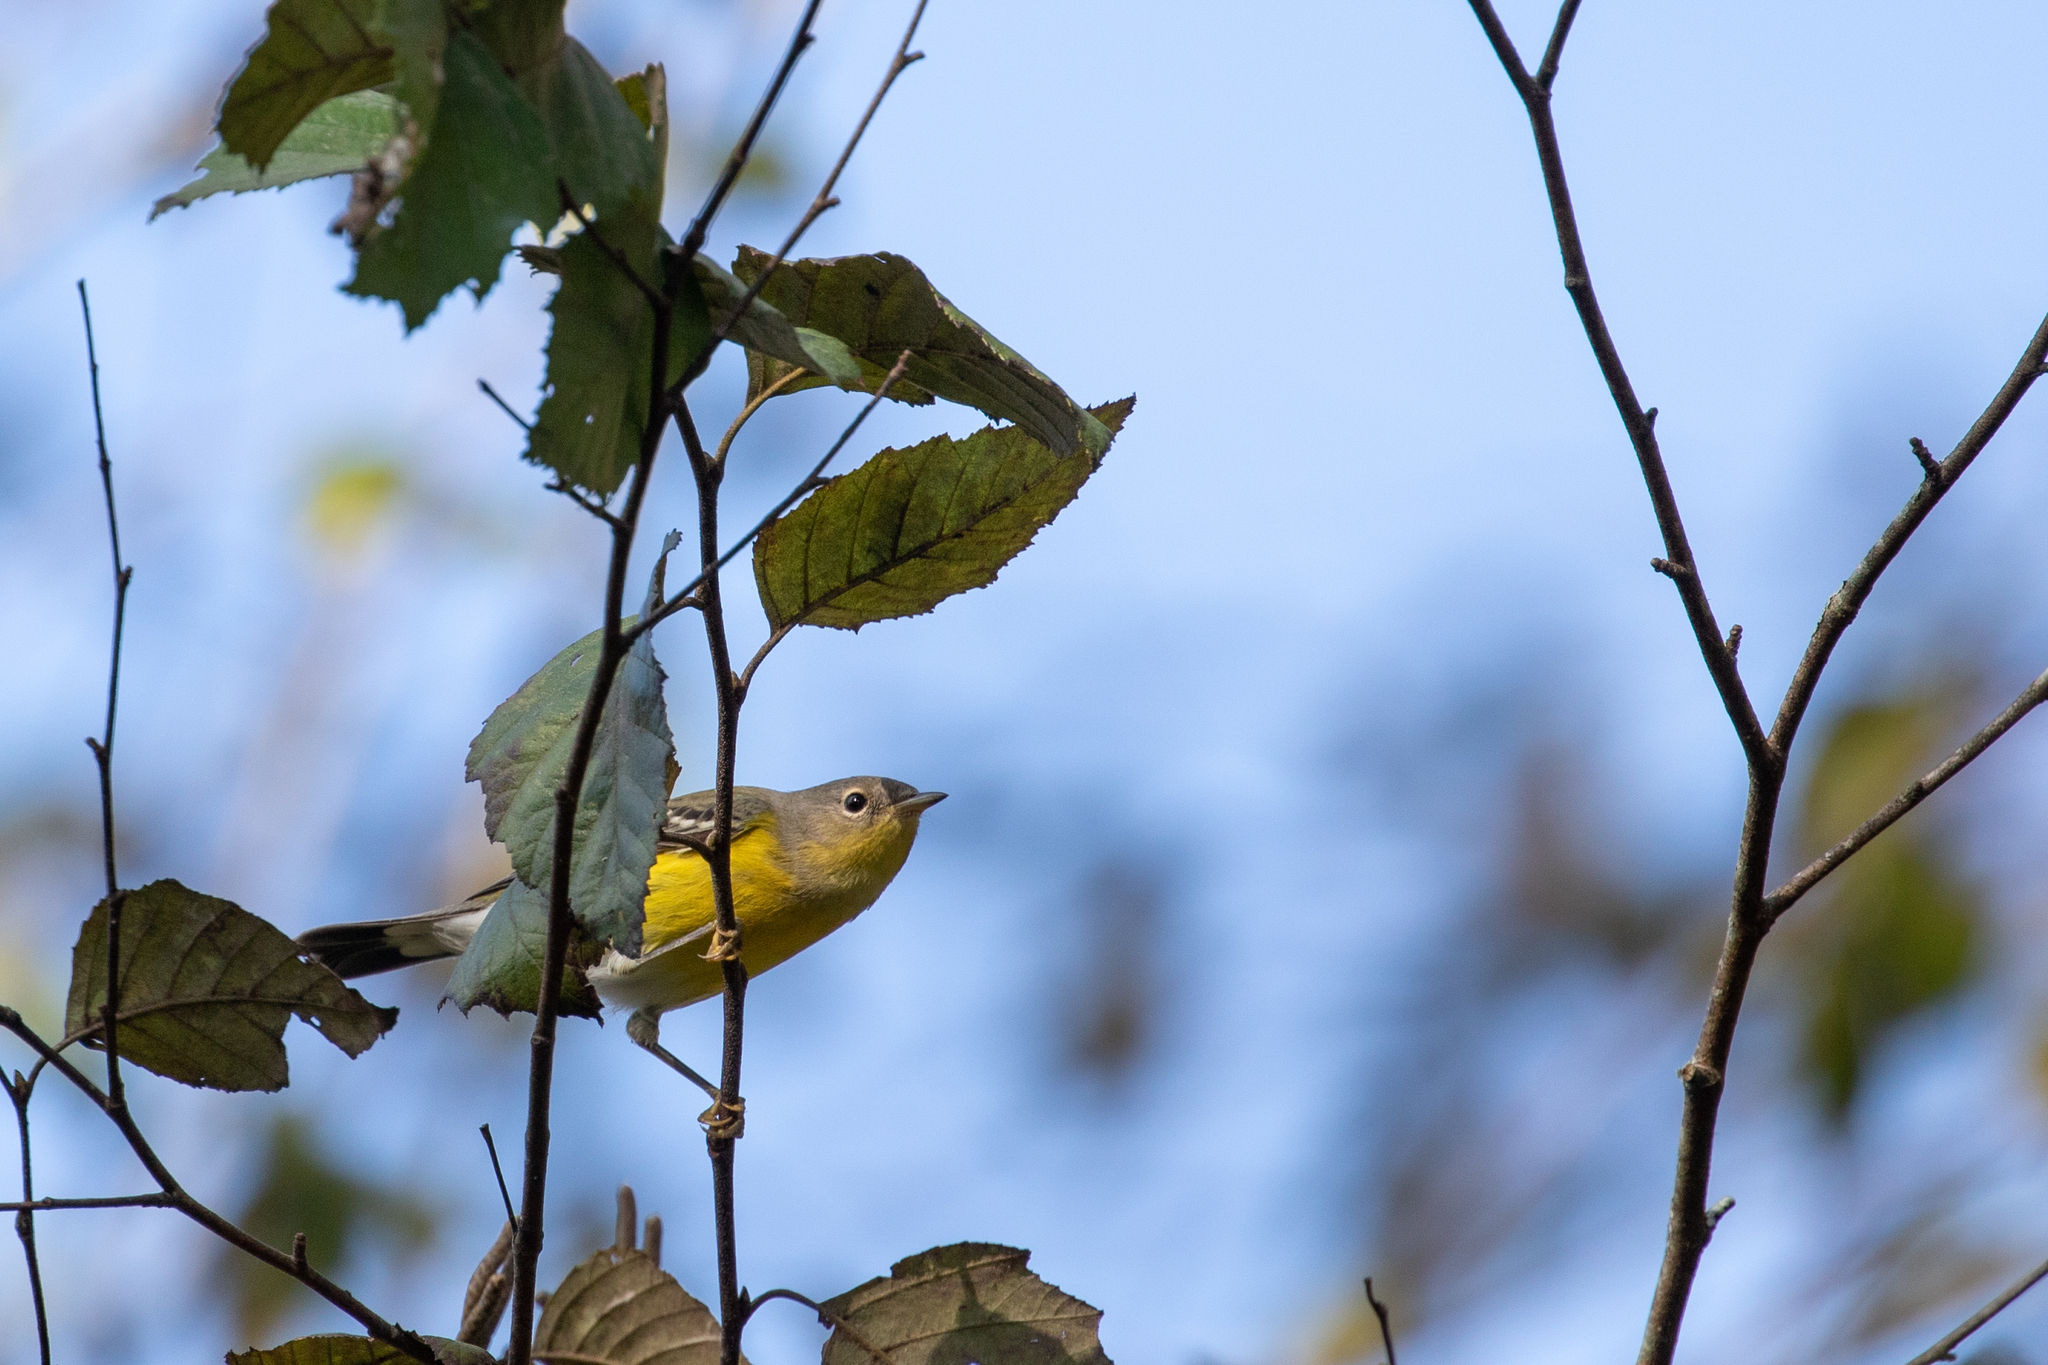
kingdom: Animalia
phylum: Chordata
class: Aves
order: Passeriformes
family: Parulidae
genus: Setophaga
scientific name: Setophaga magnolia
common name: Magnolia warbler
